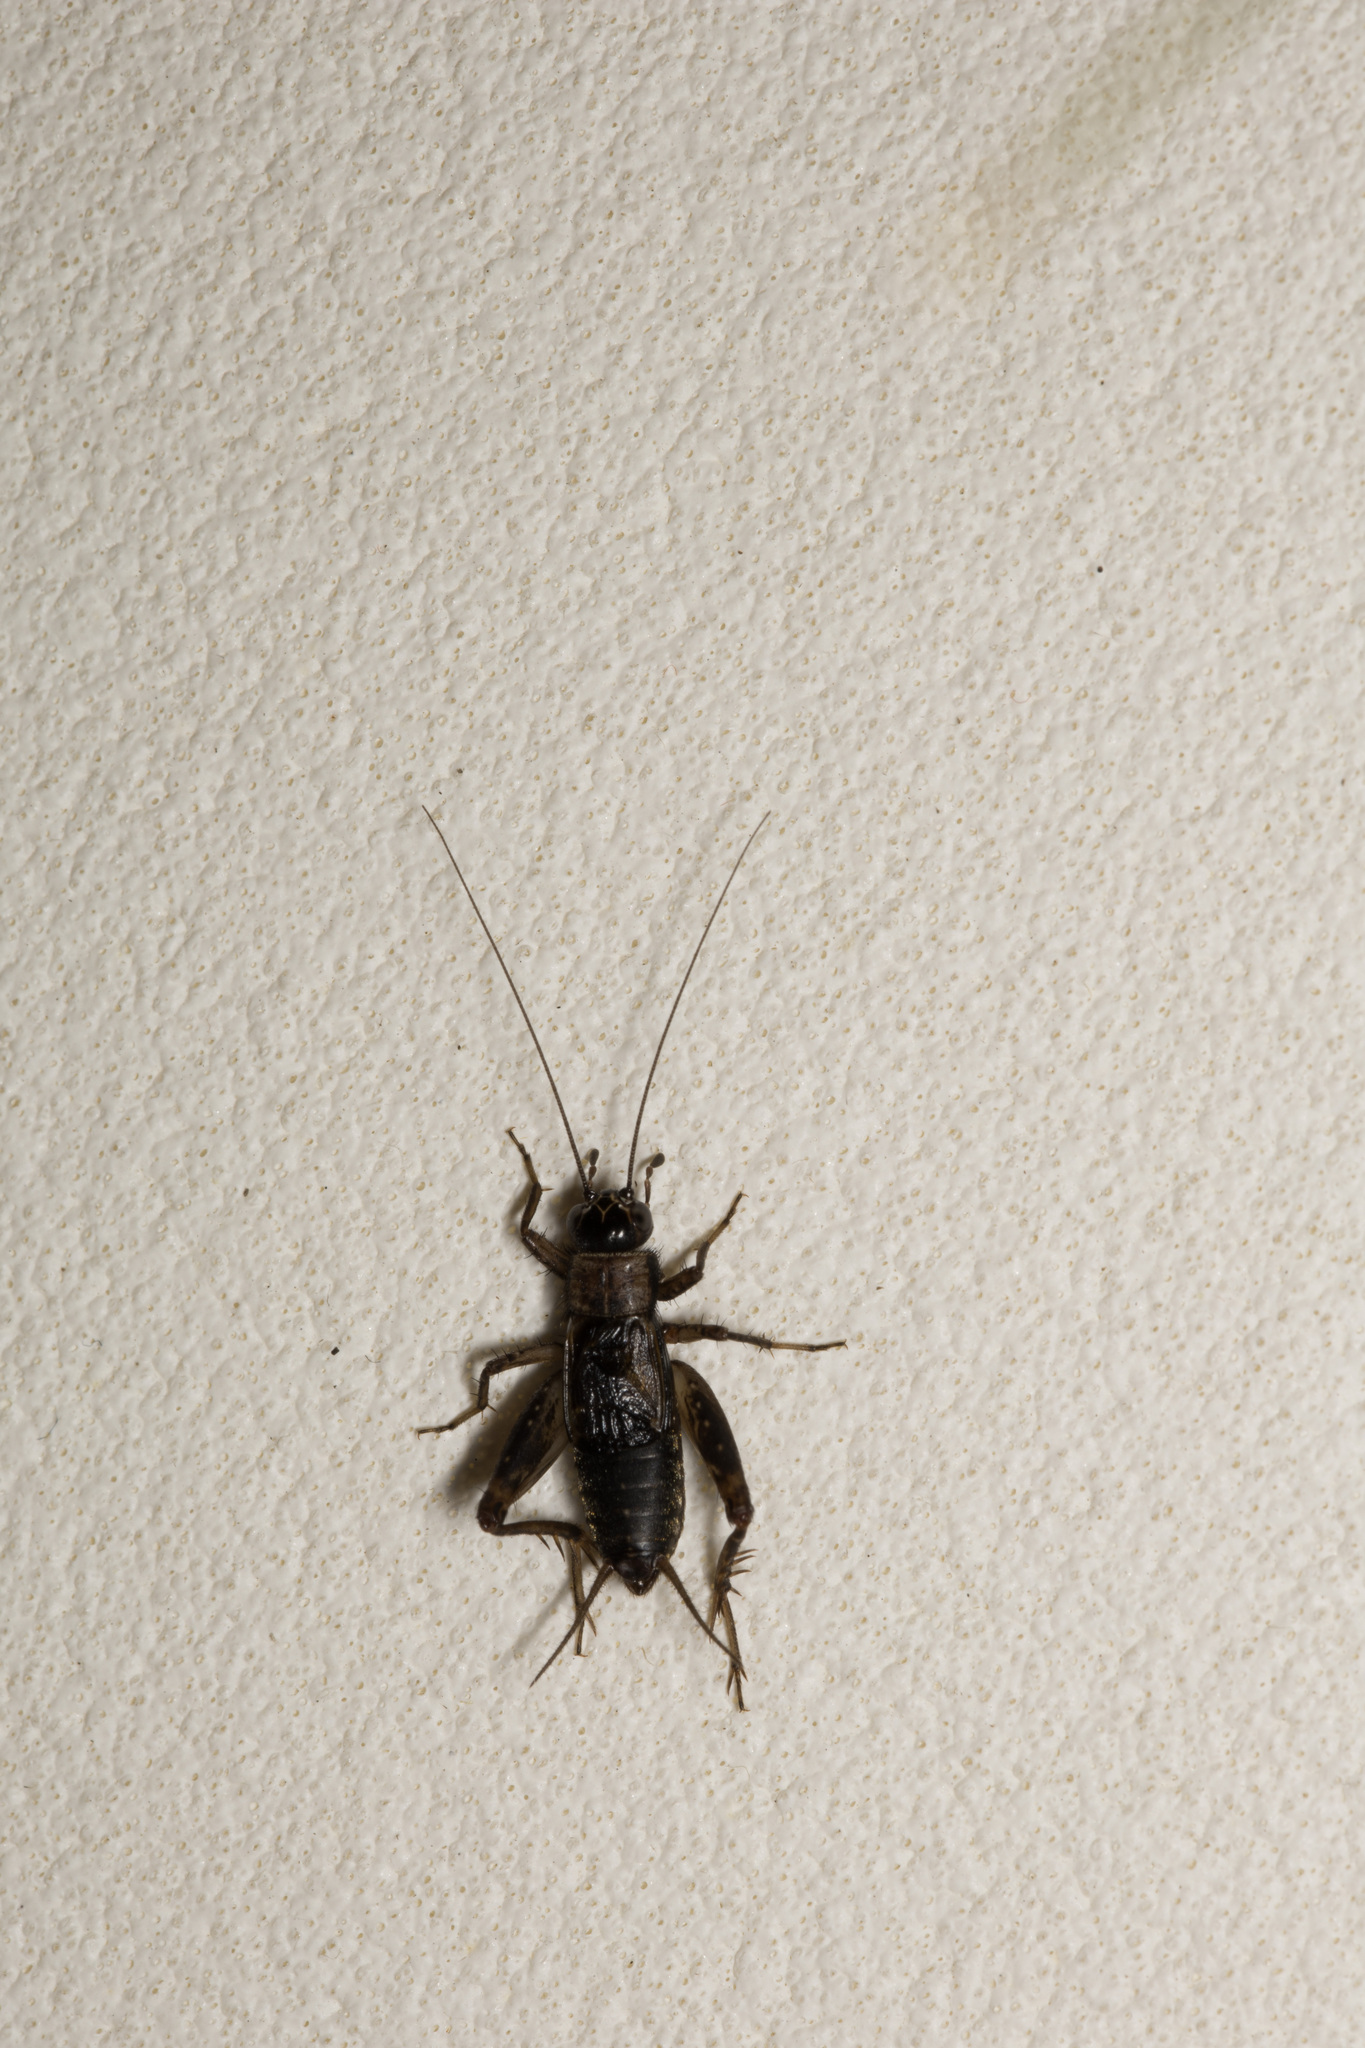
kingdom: Animalia
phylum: Arthropoda
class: Insecta
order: Orthoptera
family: Trigonidiidae
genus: Nemobius
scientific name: Nemobius sylvestris
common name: Wood-cricket
